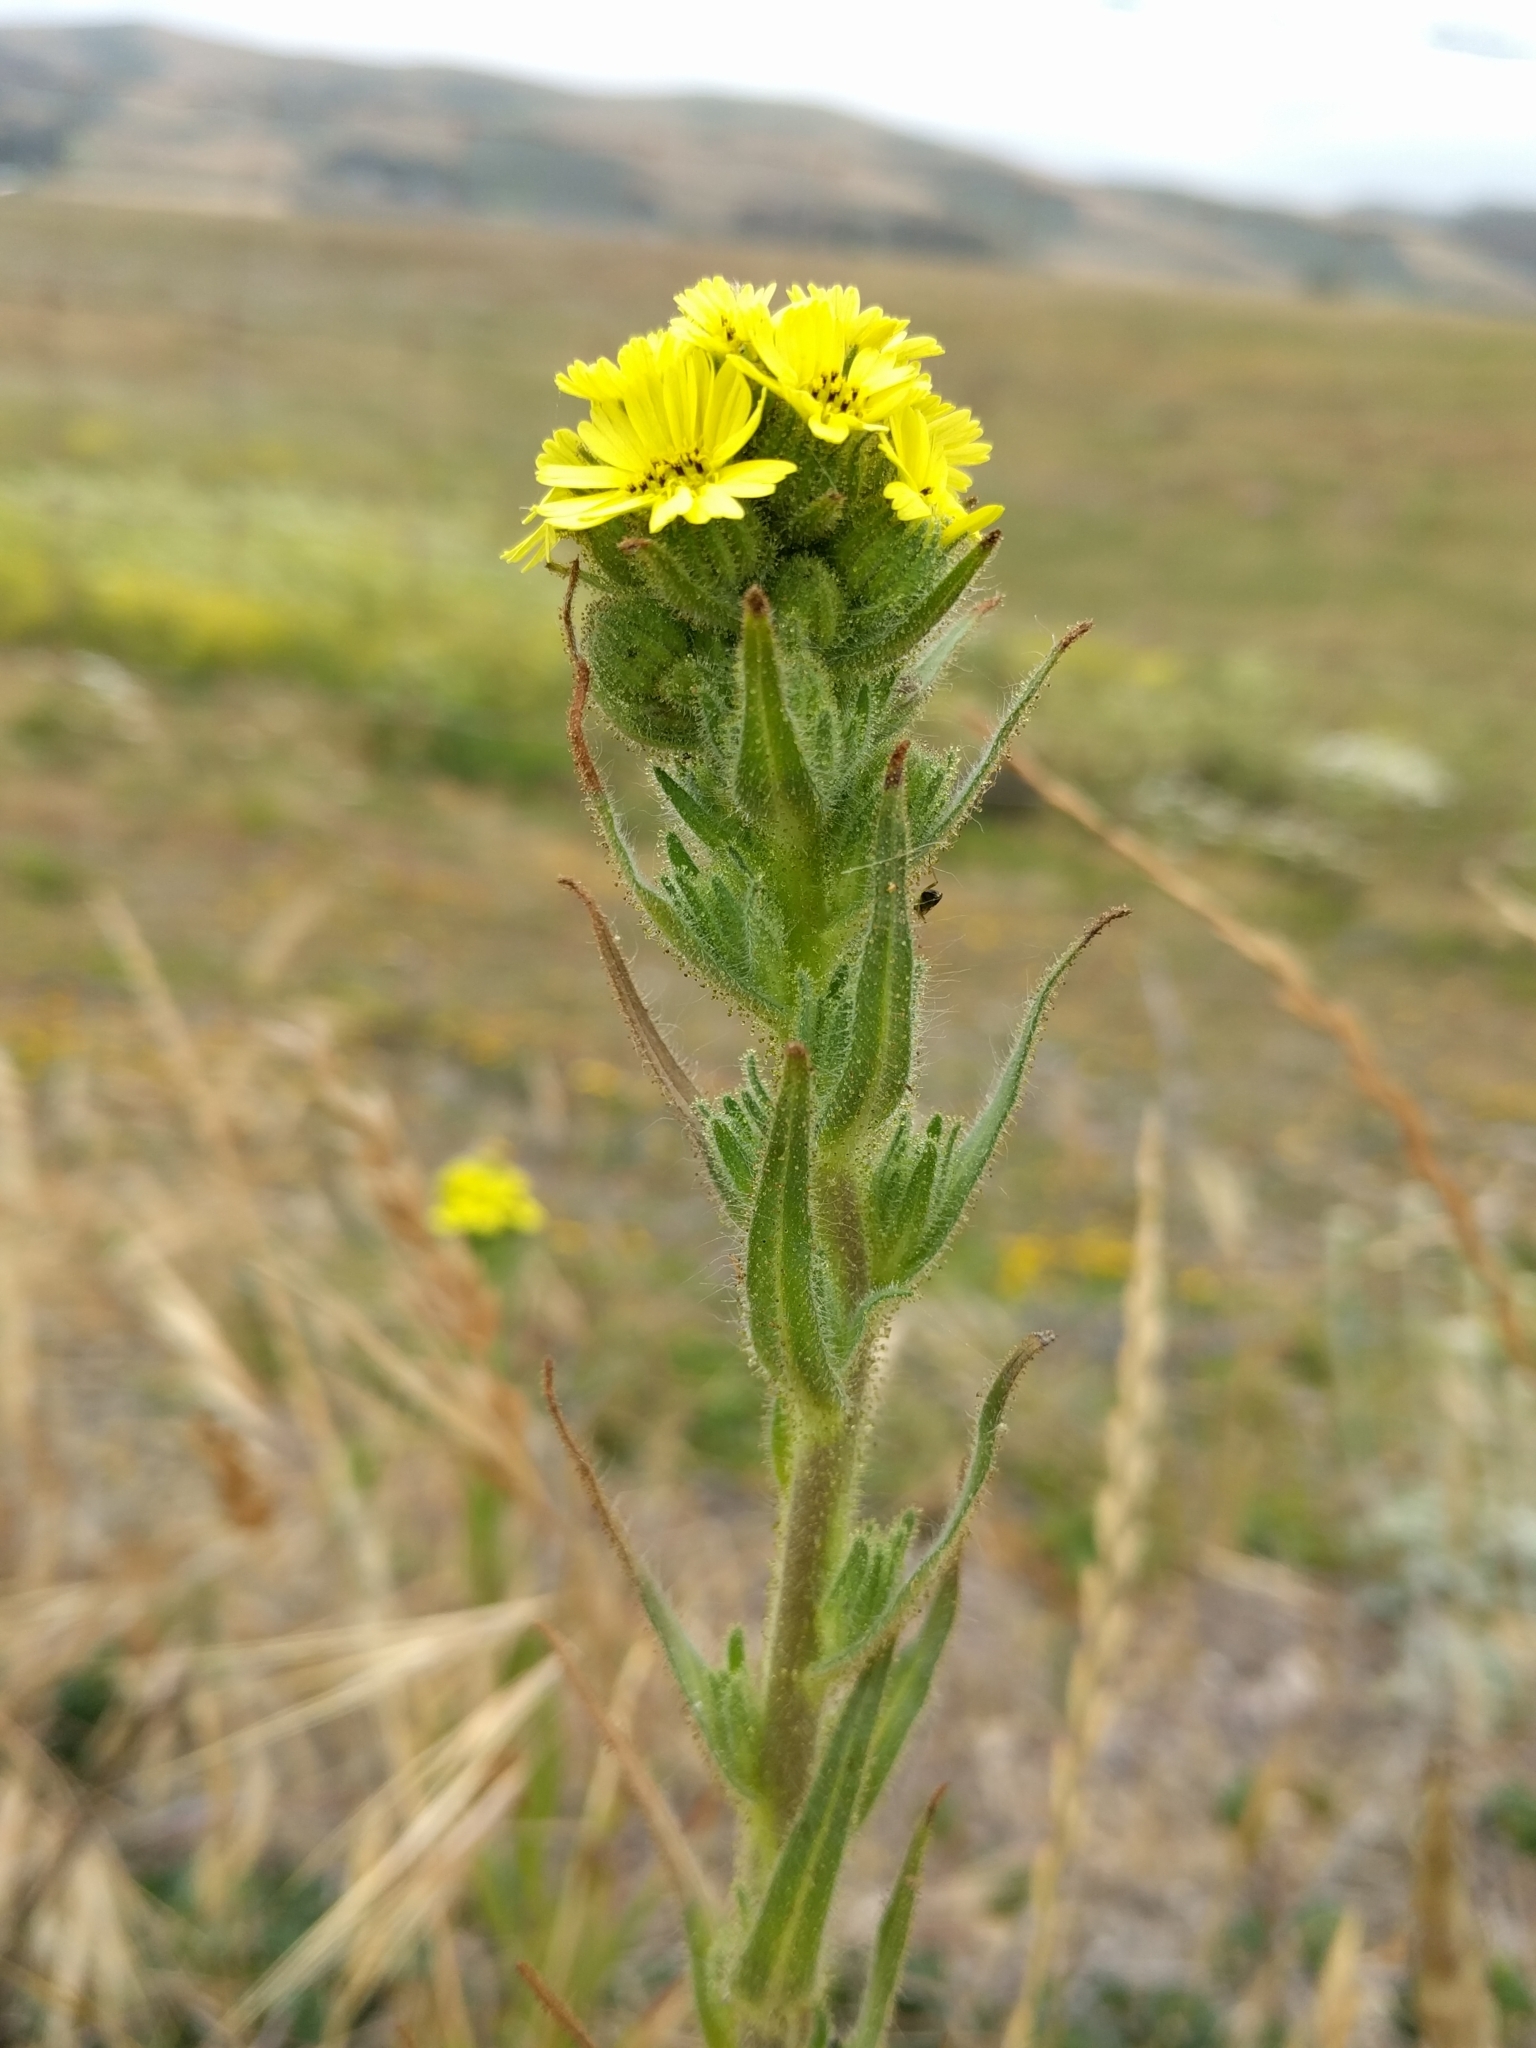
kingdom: Plantae
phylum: Tracheophyta
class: Magnoliopsida
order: Asterales
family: Asteraceae
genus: Madia
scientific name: Madia sativa
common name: Coast tarweed
